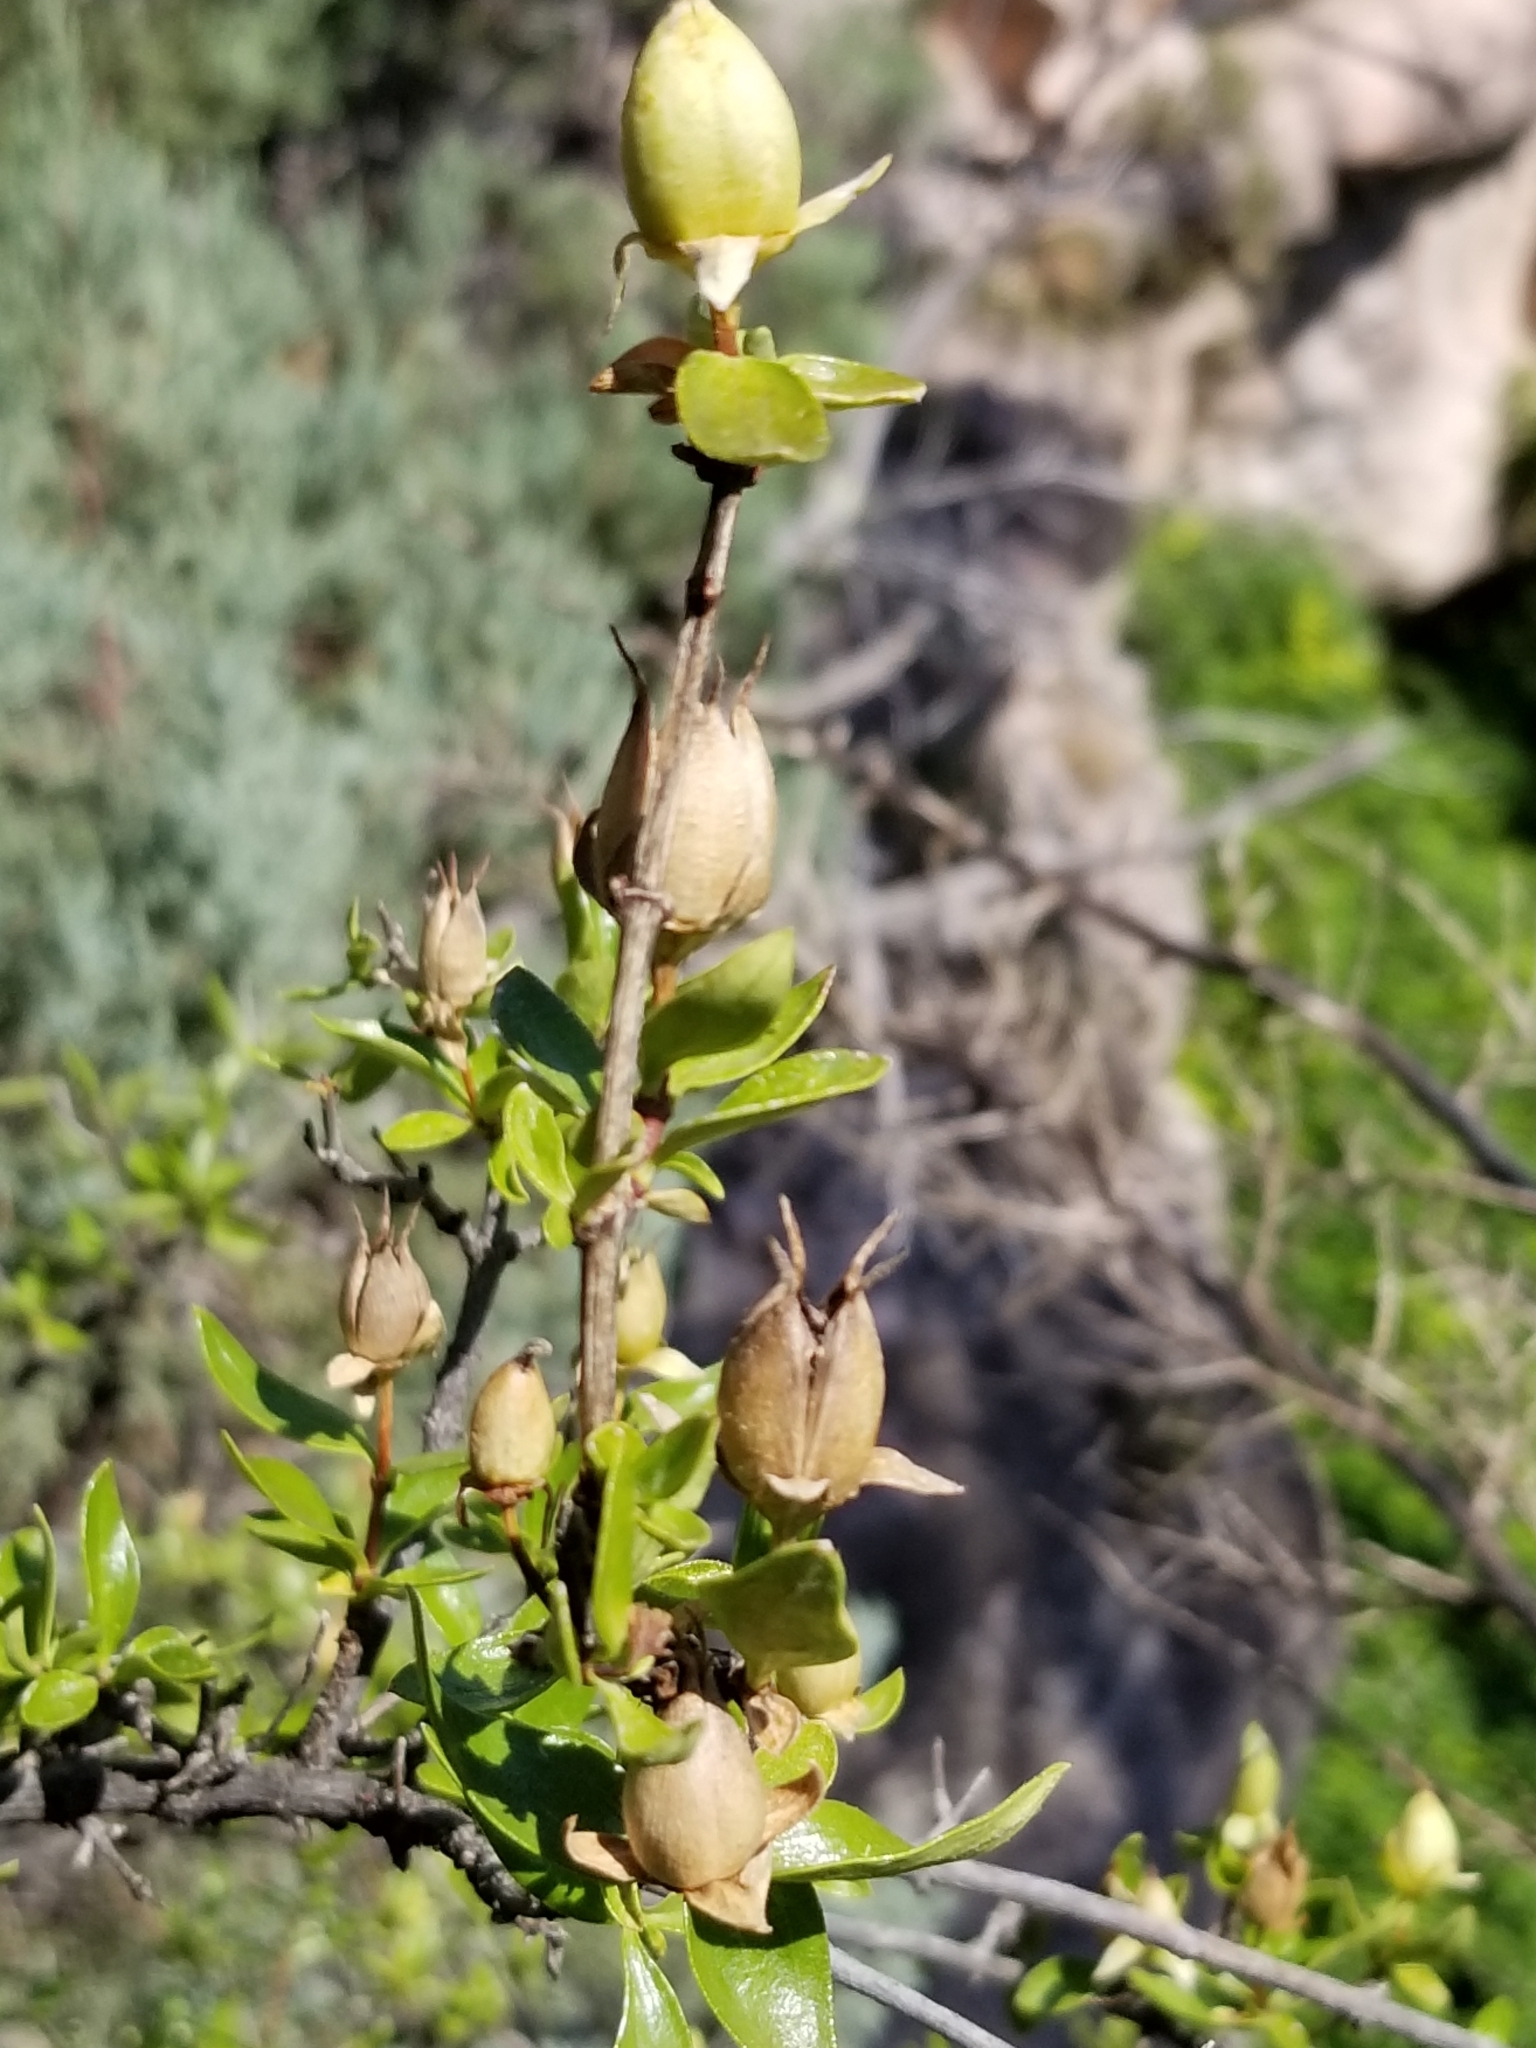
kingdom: Plantae
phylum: Tracheophyta
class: Magnoliopsida
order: Lamiales
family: Plantaginaceae
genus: Keckiella
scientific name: Keckiella antirrhinoides
